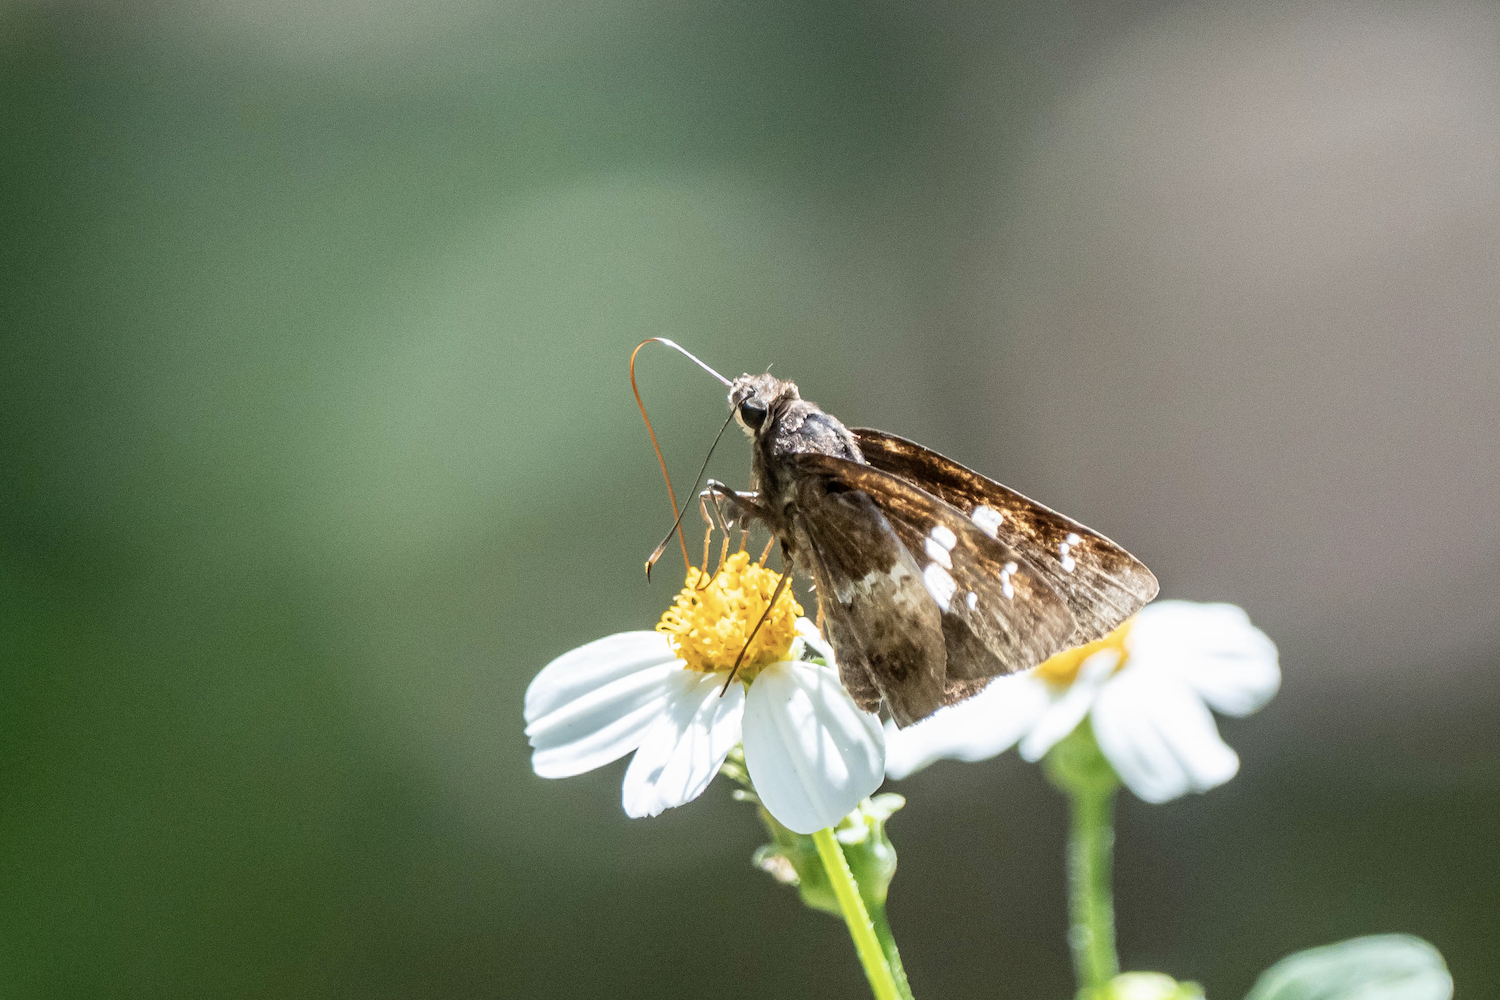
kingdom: Animalia
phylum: Arthropoda
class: Insecta
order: Lepidoptera
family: Hesperiidae
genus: Hyarotis
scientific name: Hyarotis adrastus
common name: Tree flitter
